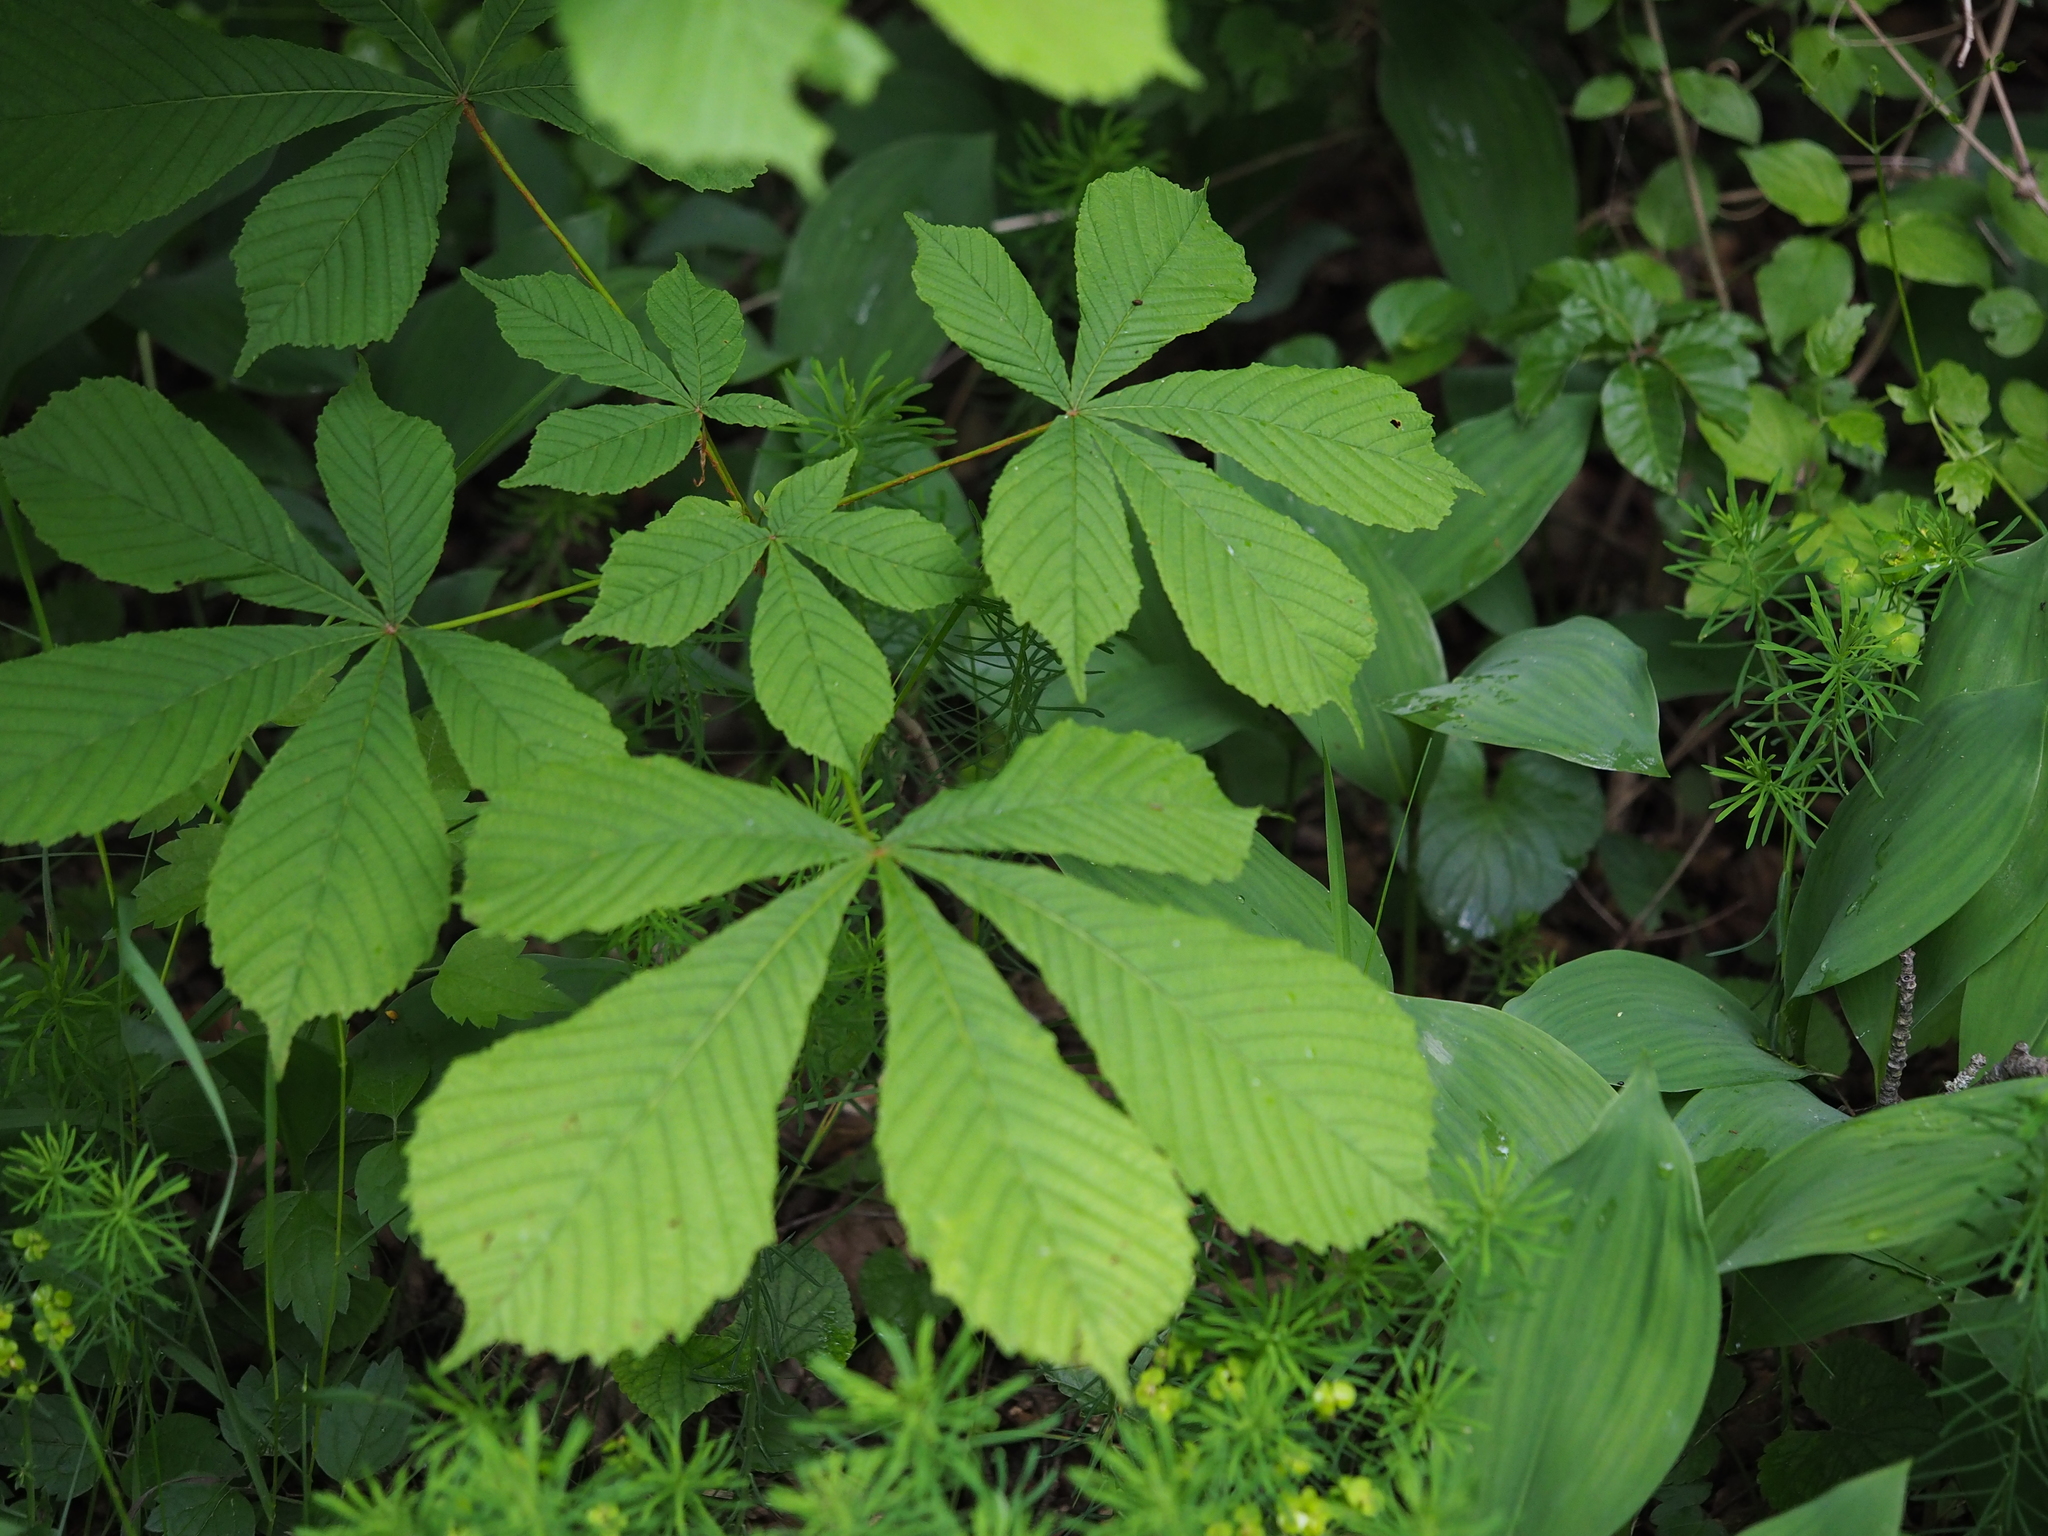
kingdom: Plantae
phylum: Tracheophyta
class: Magnoliopsida
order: Sapindales
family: Sapindaceae
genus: Aesculus
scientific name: Aesculus hippocastanum
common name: Horse-chestnut
